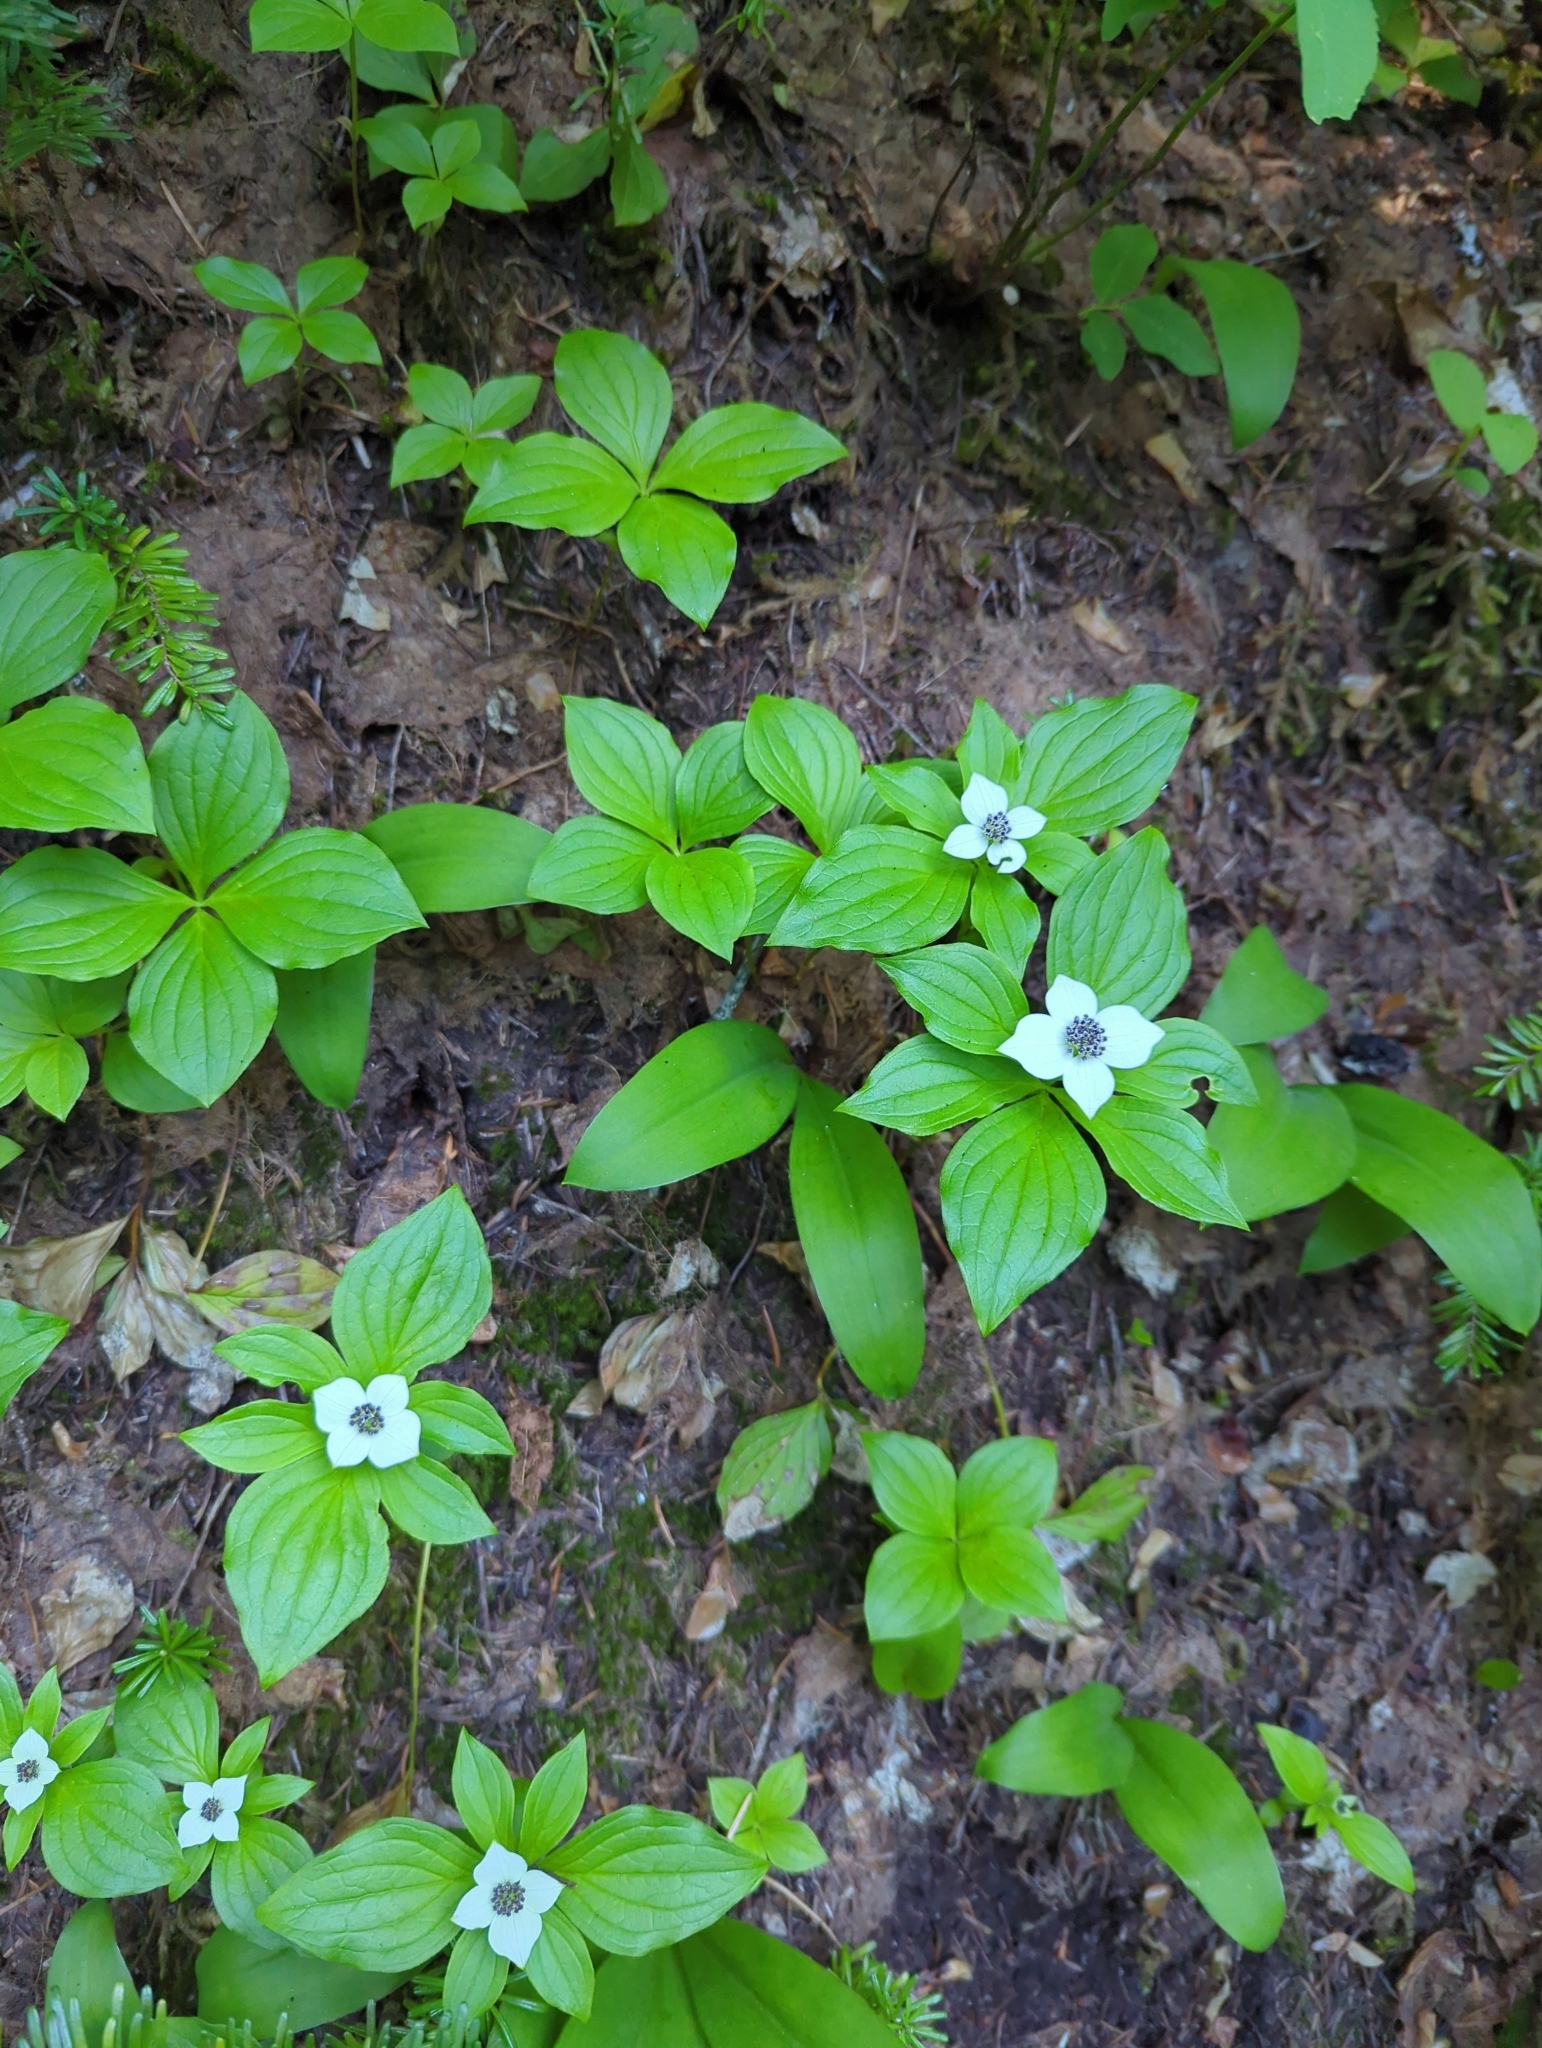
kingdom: Plantae
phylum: Tracheophyta
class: Magnoliopsida
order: Cornales
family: Cornaceae
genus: Cornus
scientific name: Cornus unalaschkensis
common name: Alaska bunchberry
